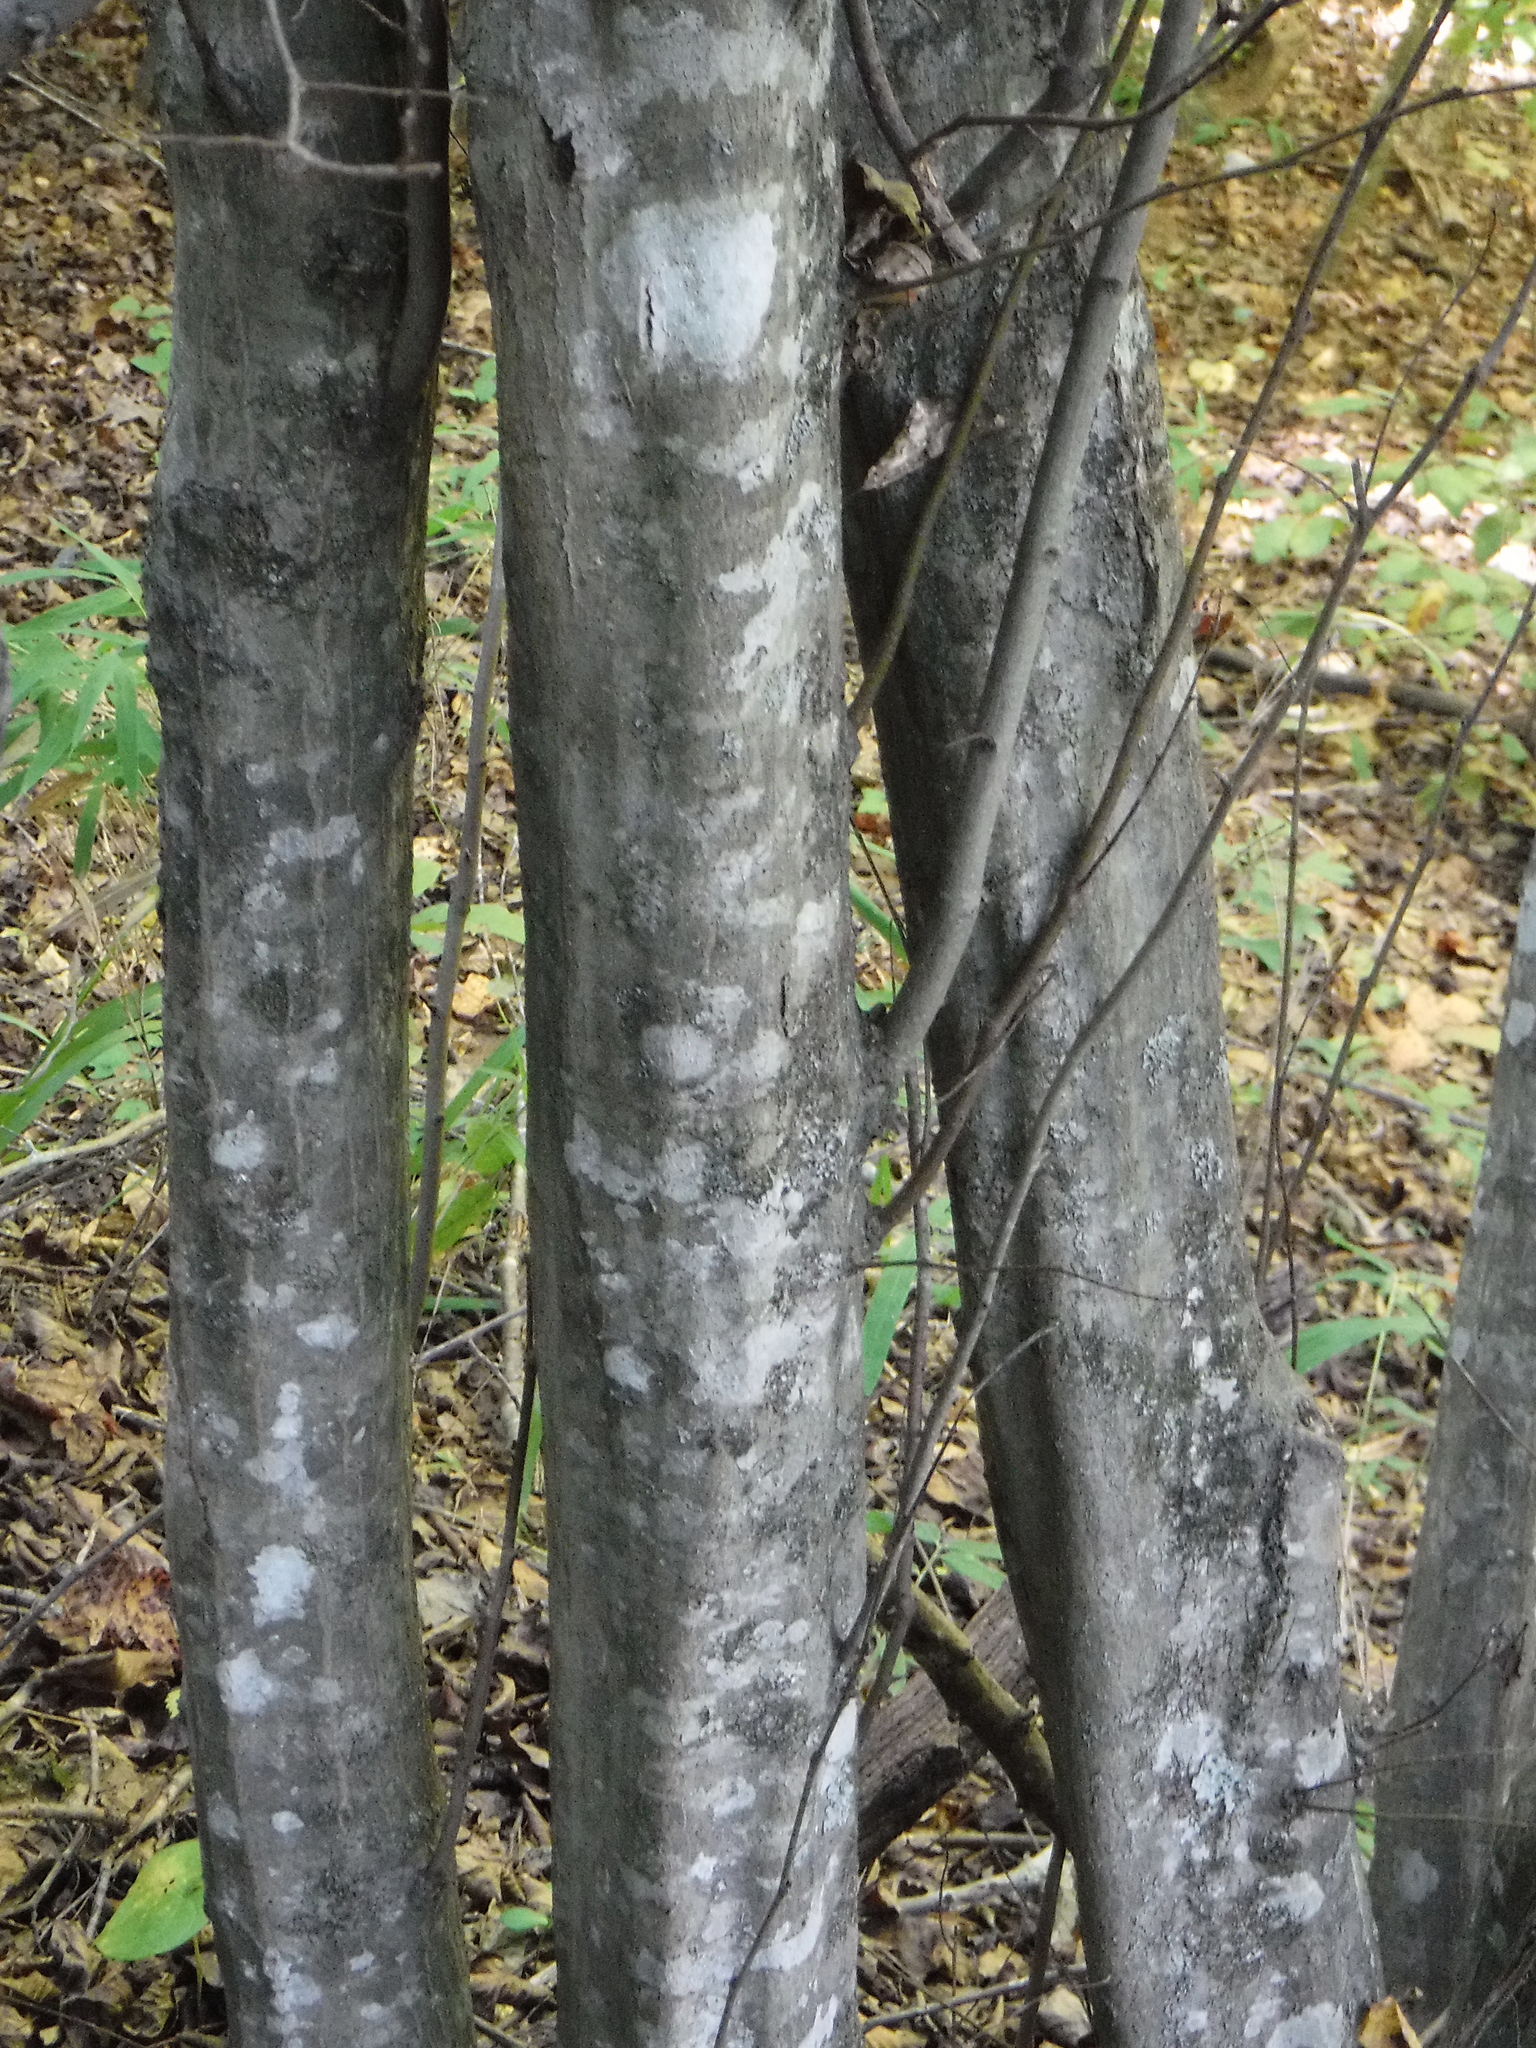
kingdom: Plantae
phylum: Tracheophyta
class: Magnoliopsida
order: Fagales
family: Betulaceae
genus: Carpinus
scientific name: Carpinus caroliniana
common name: American hornbeam
